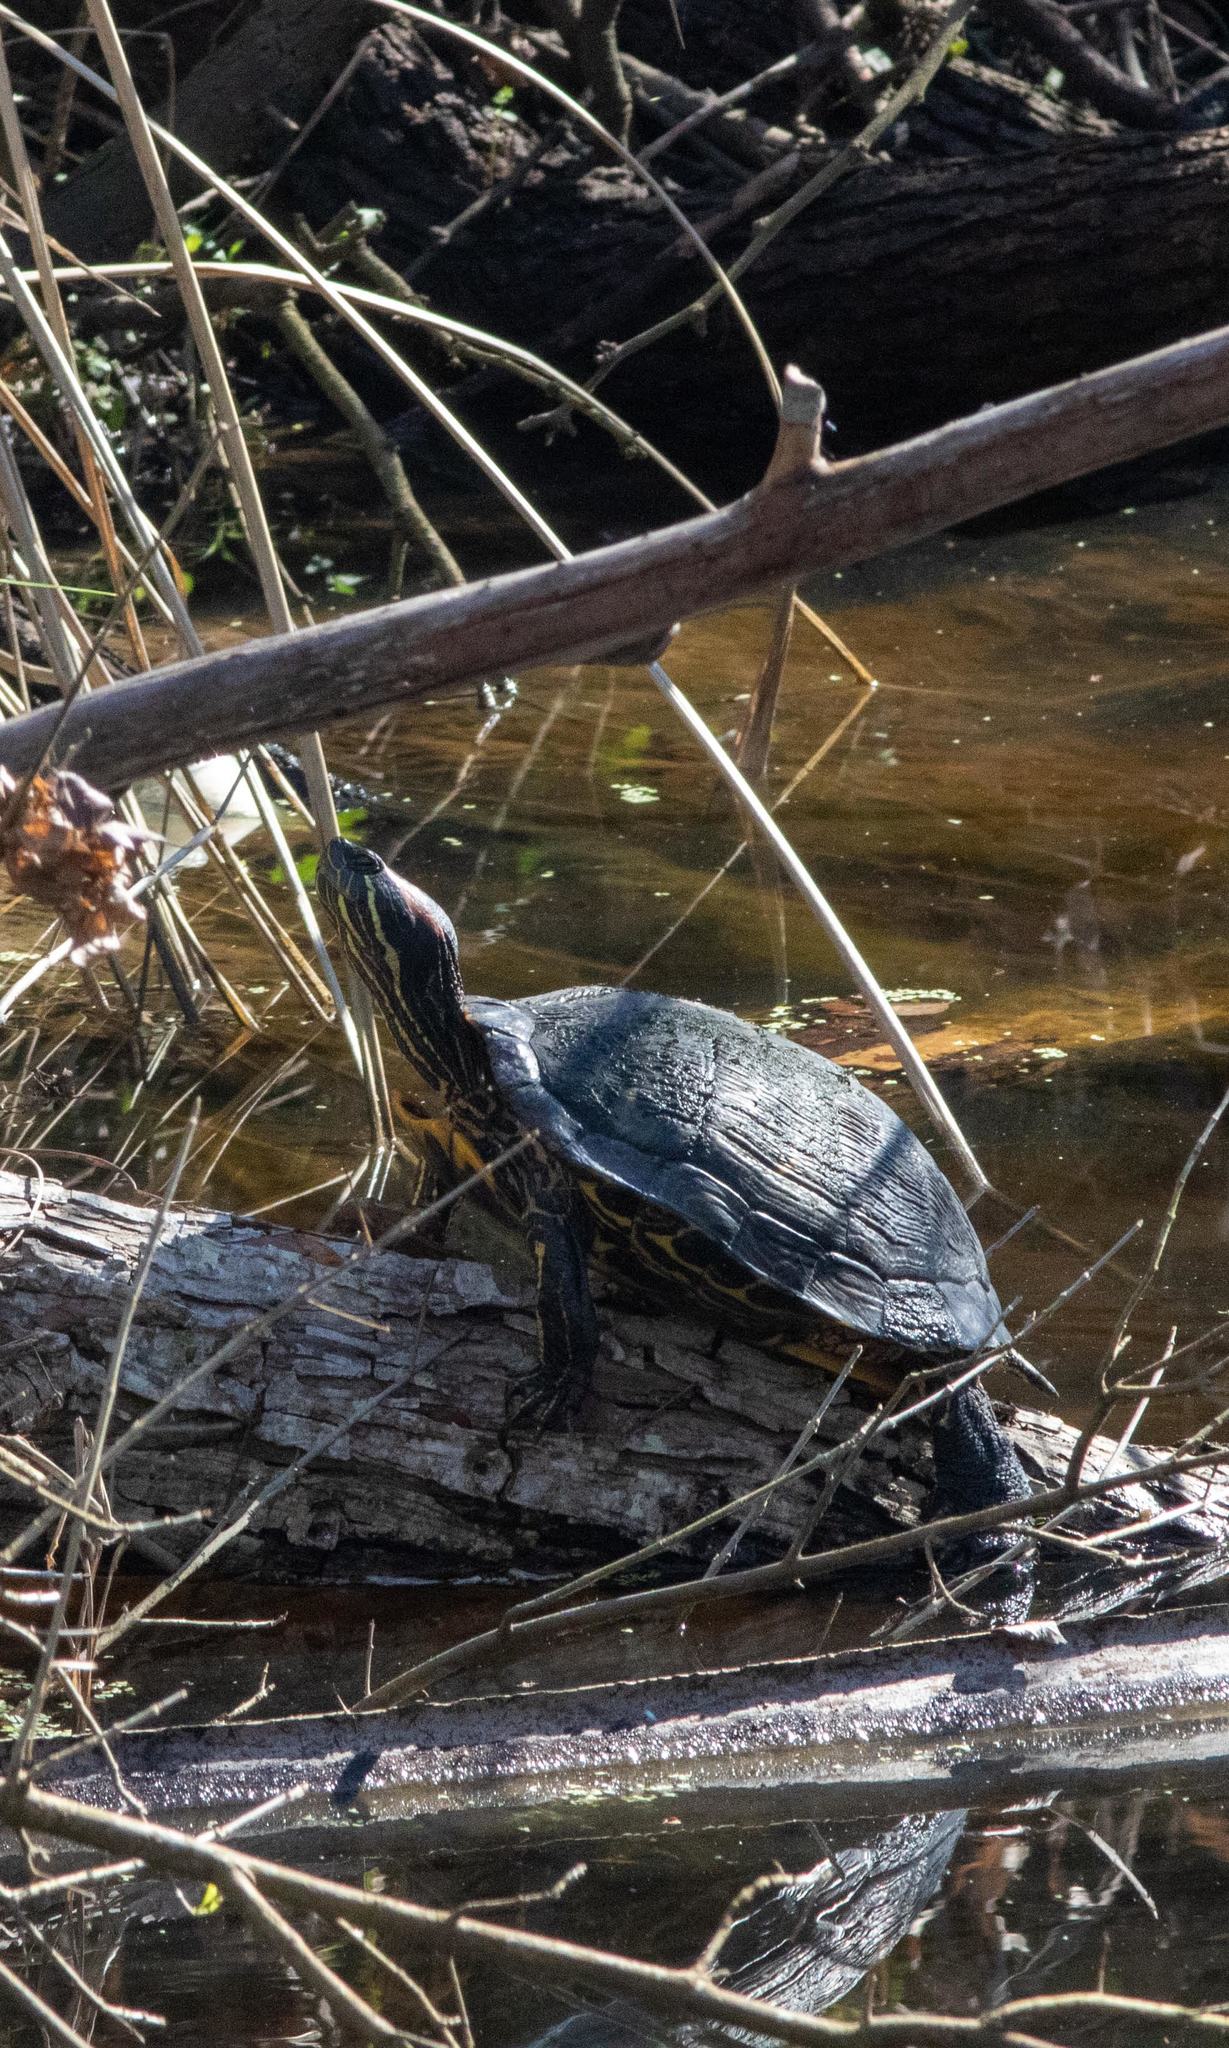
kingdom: Animalia
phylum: Chordata
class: Testudines
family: Emydidae
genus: Trachemys
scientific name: Trachemys scripta
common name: Slider
